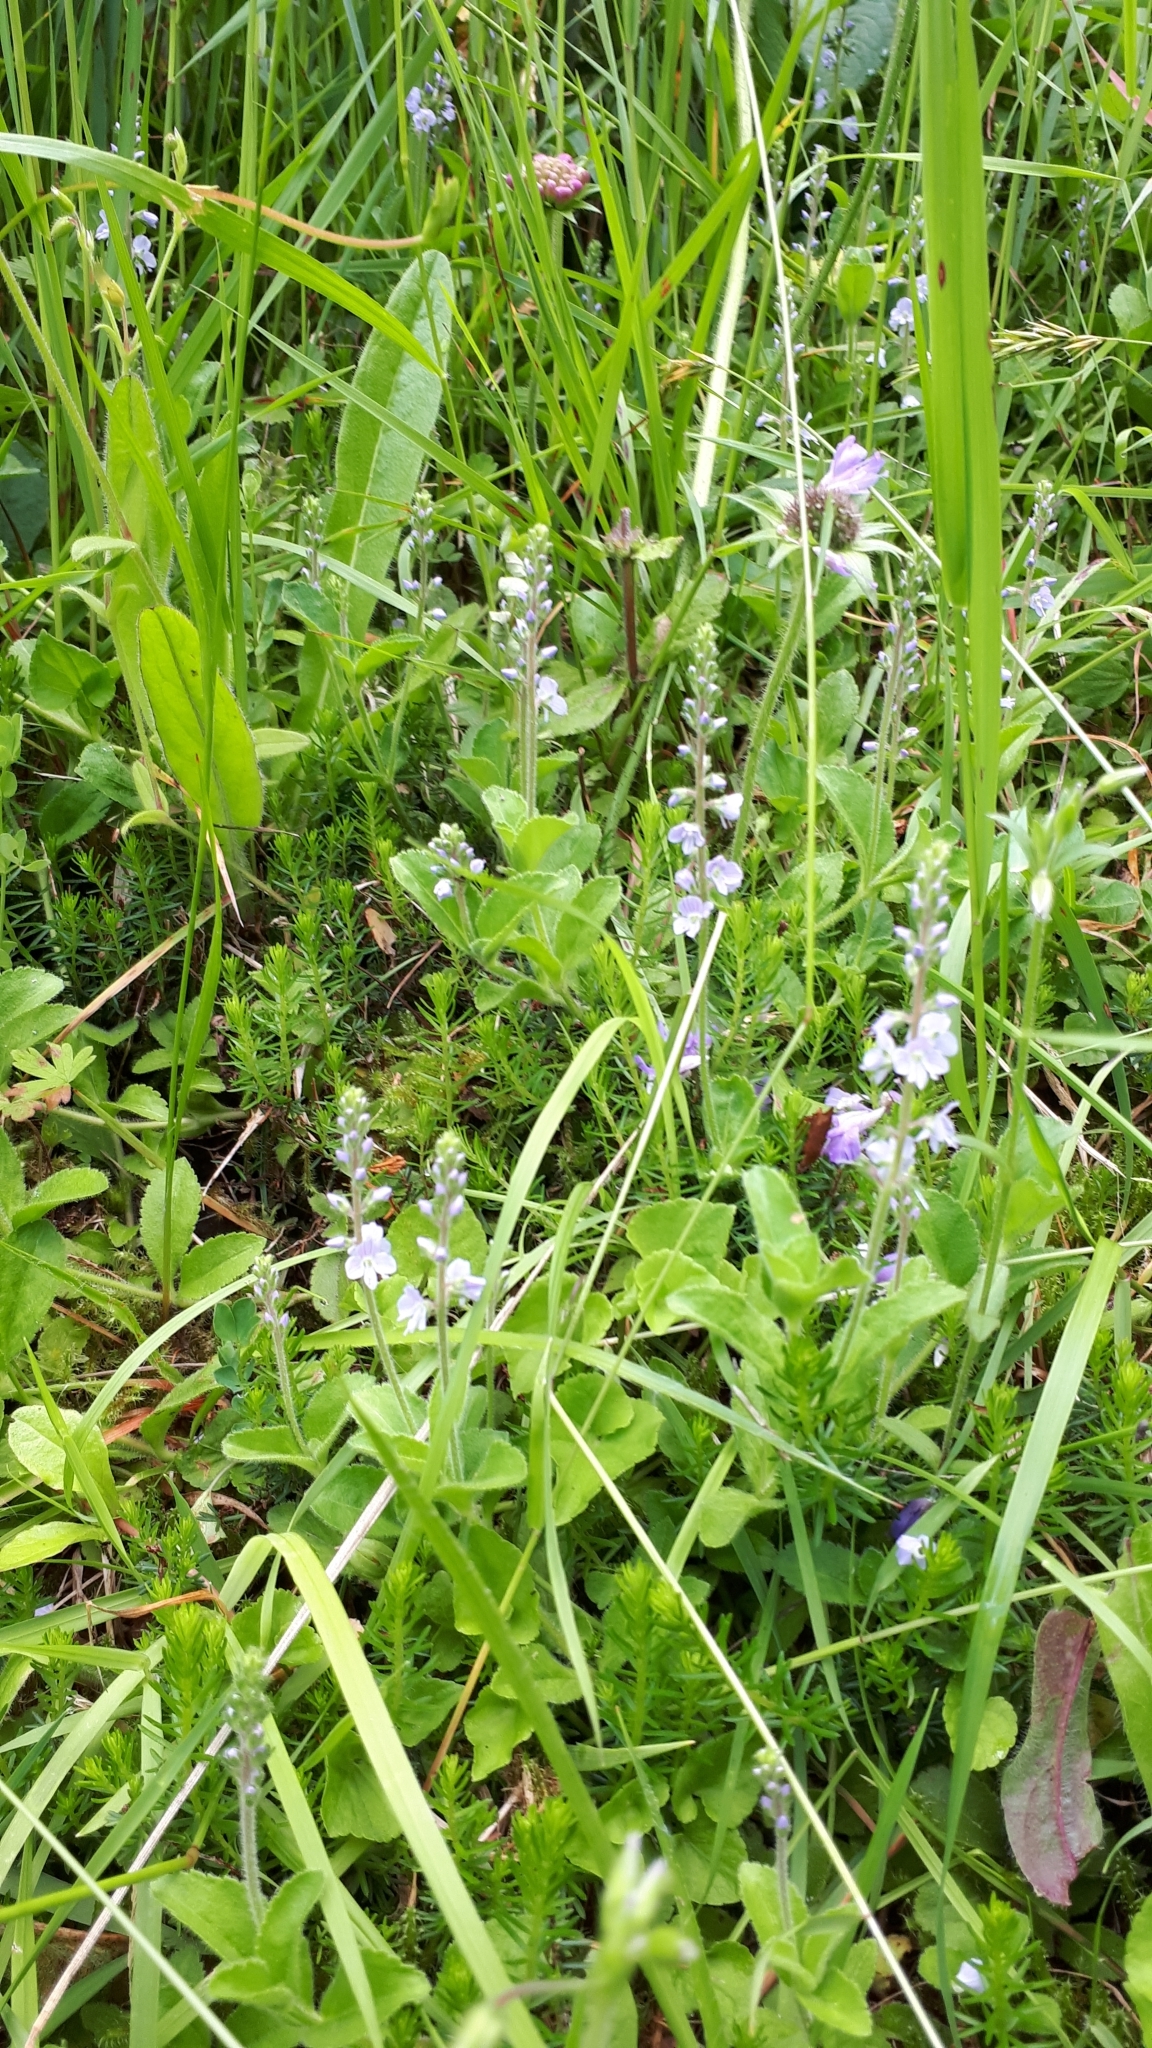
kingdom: Plantae
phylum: Tracheophyta
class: Magnoliopsida
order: Lamiales
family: Plantaginaceae
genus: Veronica
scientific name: Veronica officinalis
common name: Common speedwell
